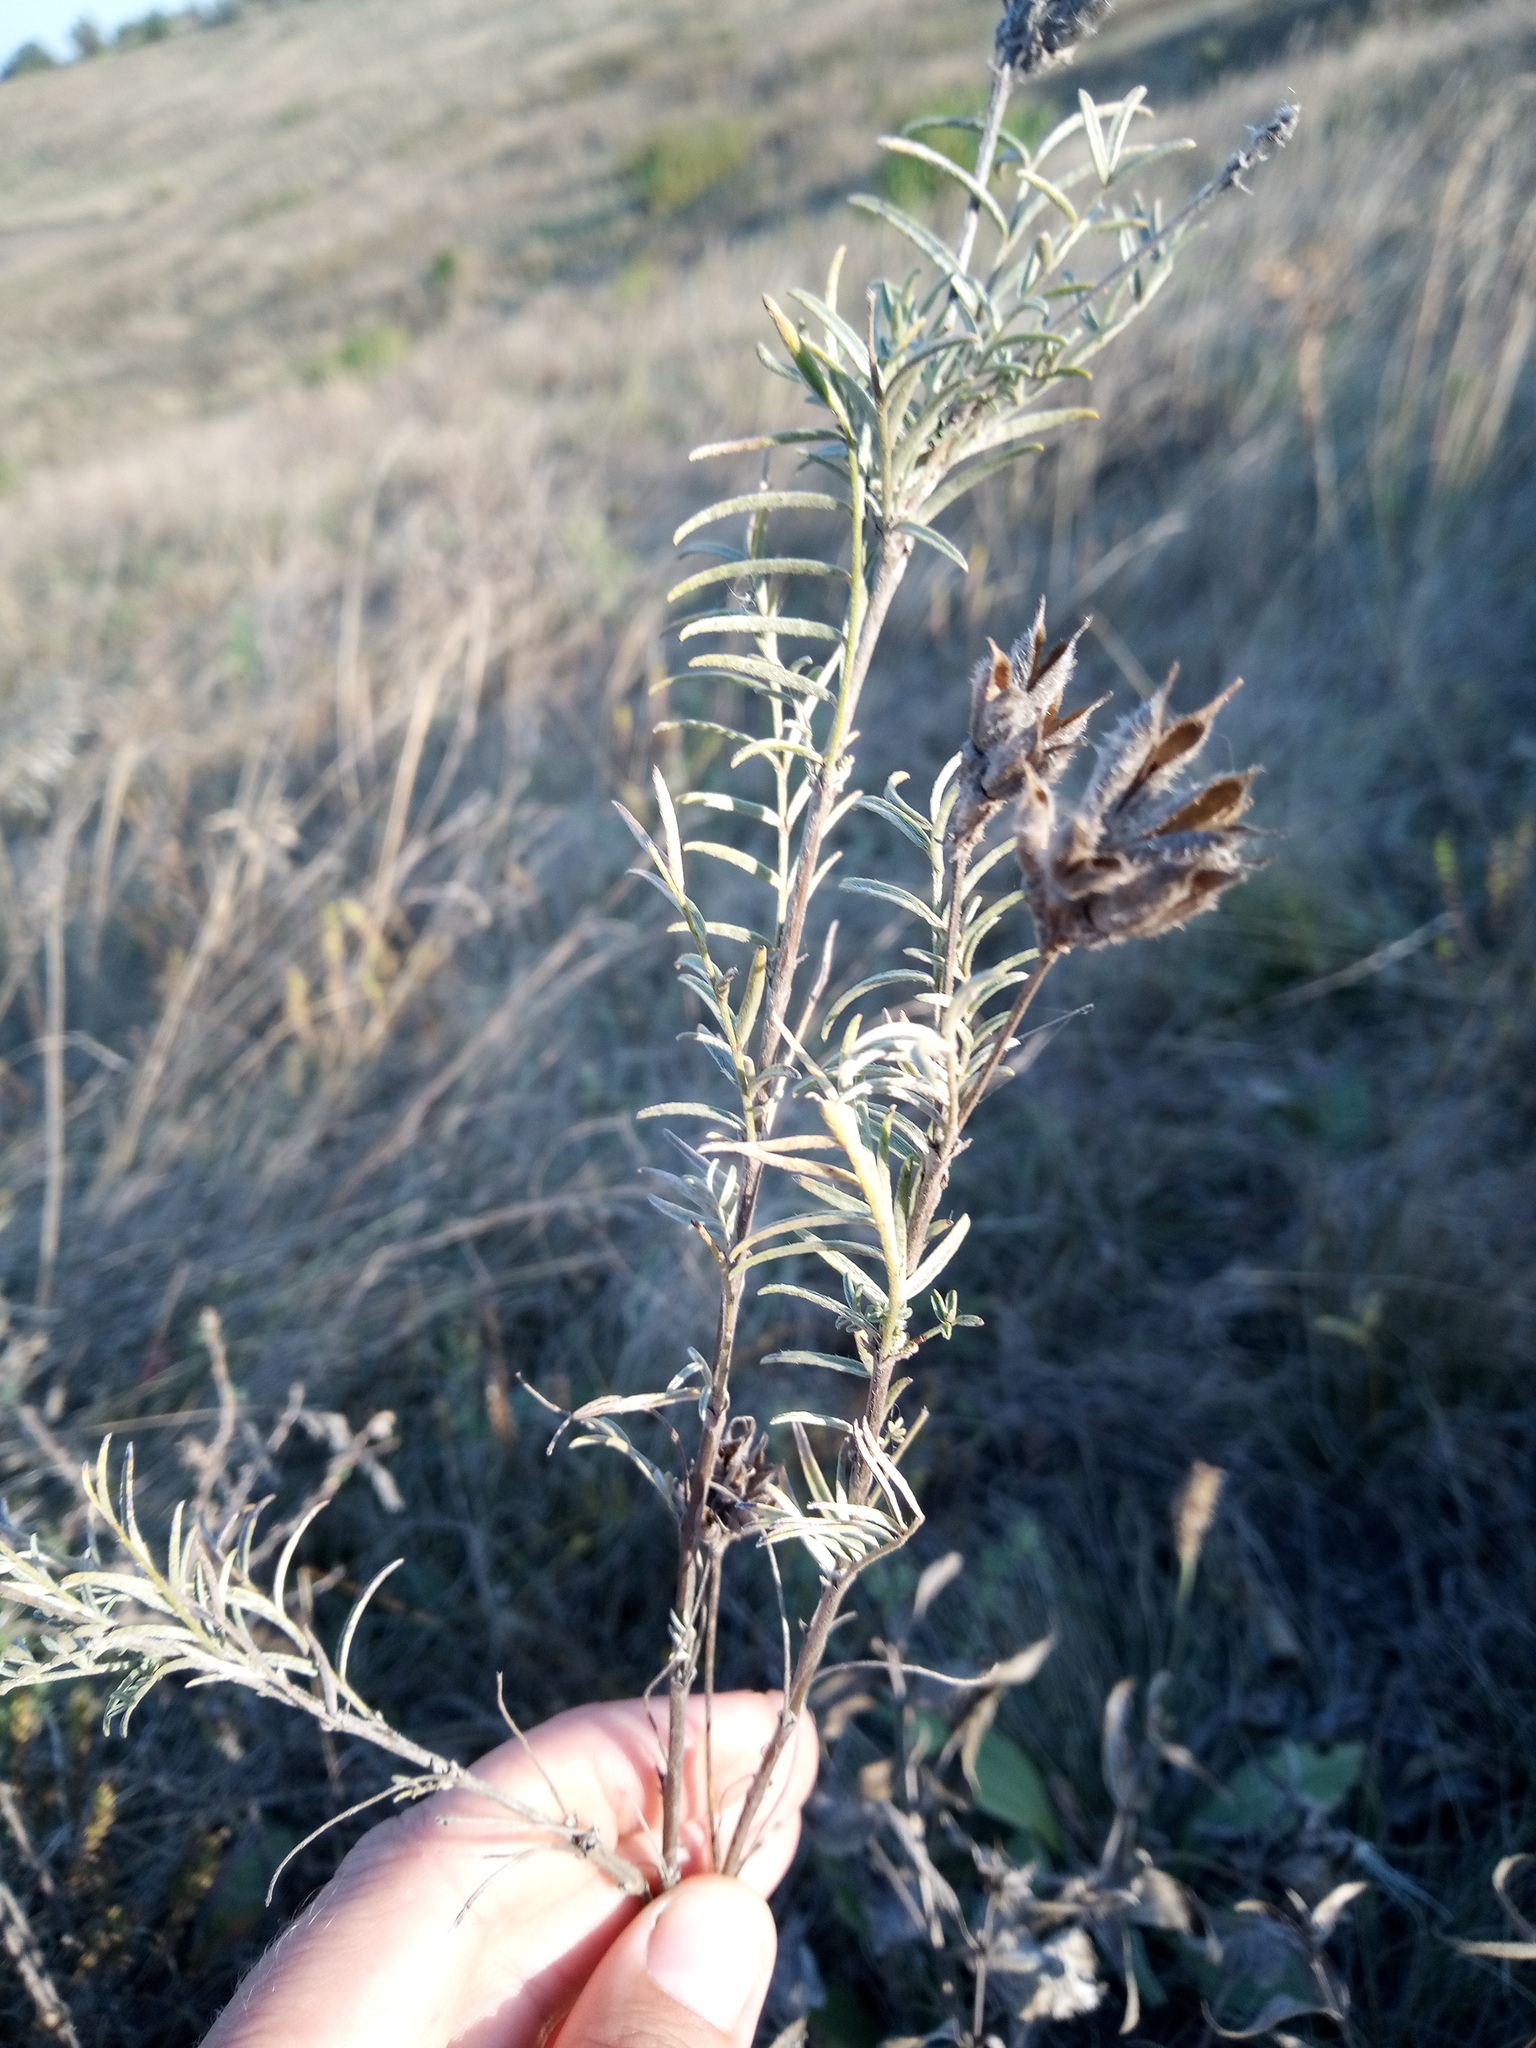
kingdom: Plantae
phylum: Tracheophyta
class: Magnoliopsida
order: Fabales
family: Fabaceae
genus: Astragalus
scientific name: Astragalus cornutus
